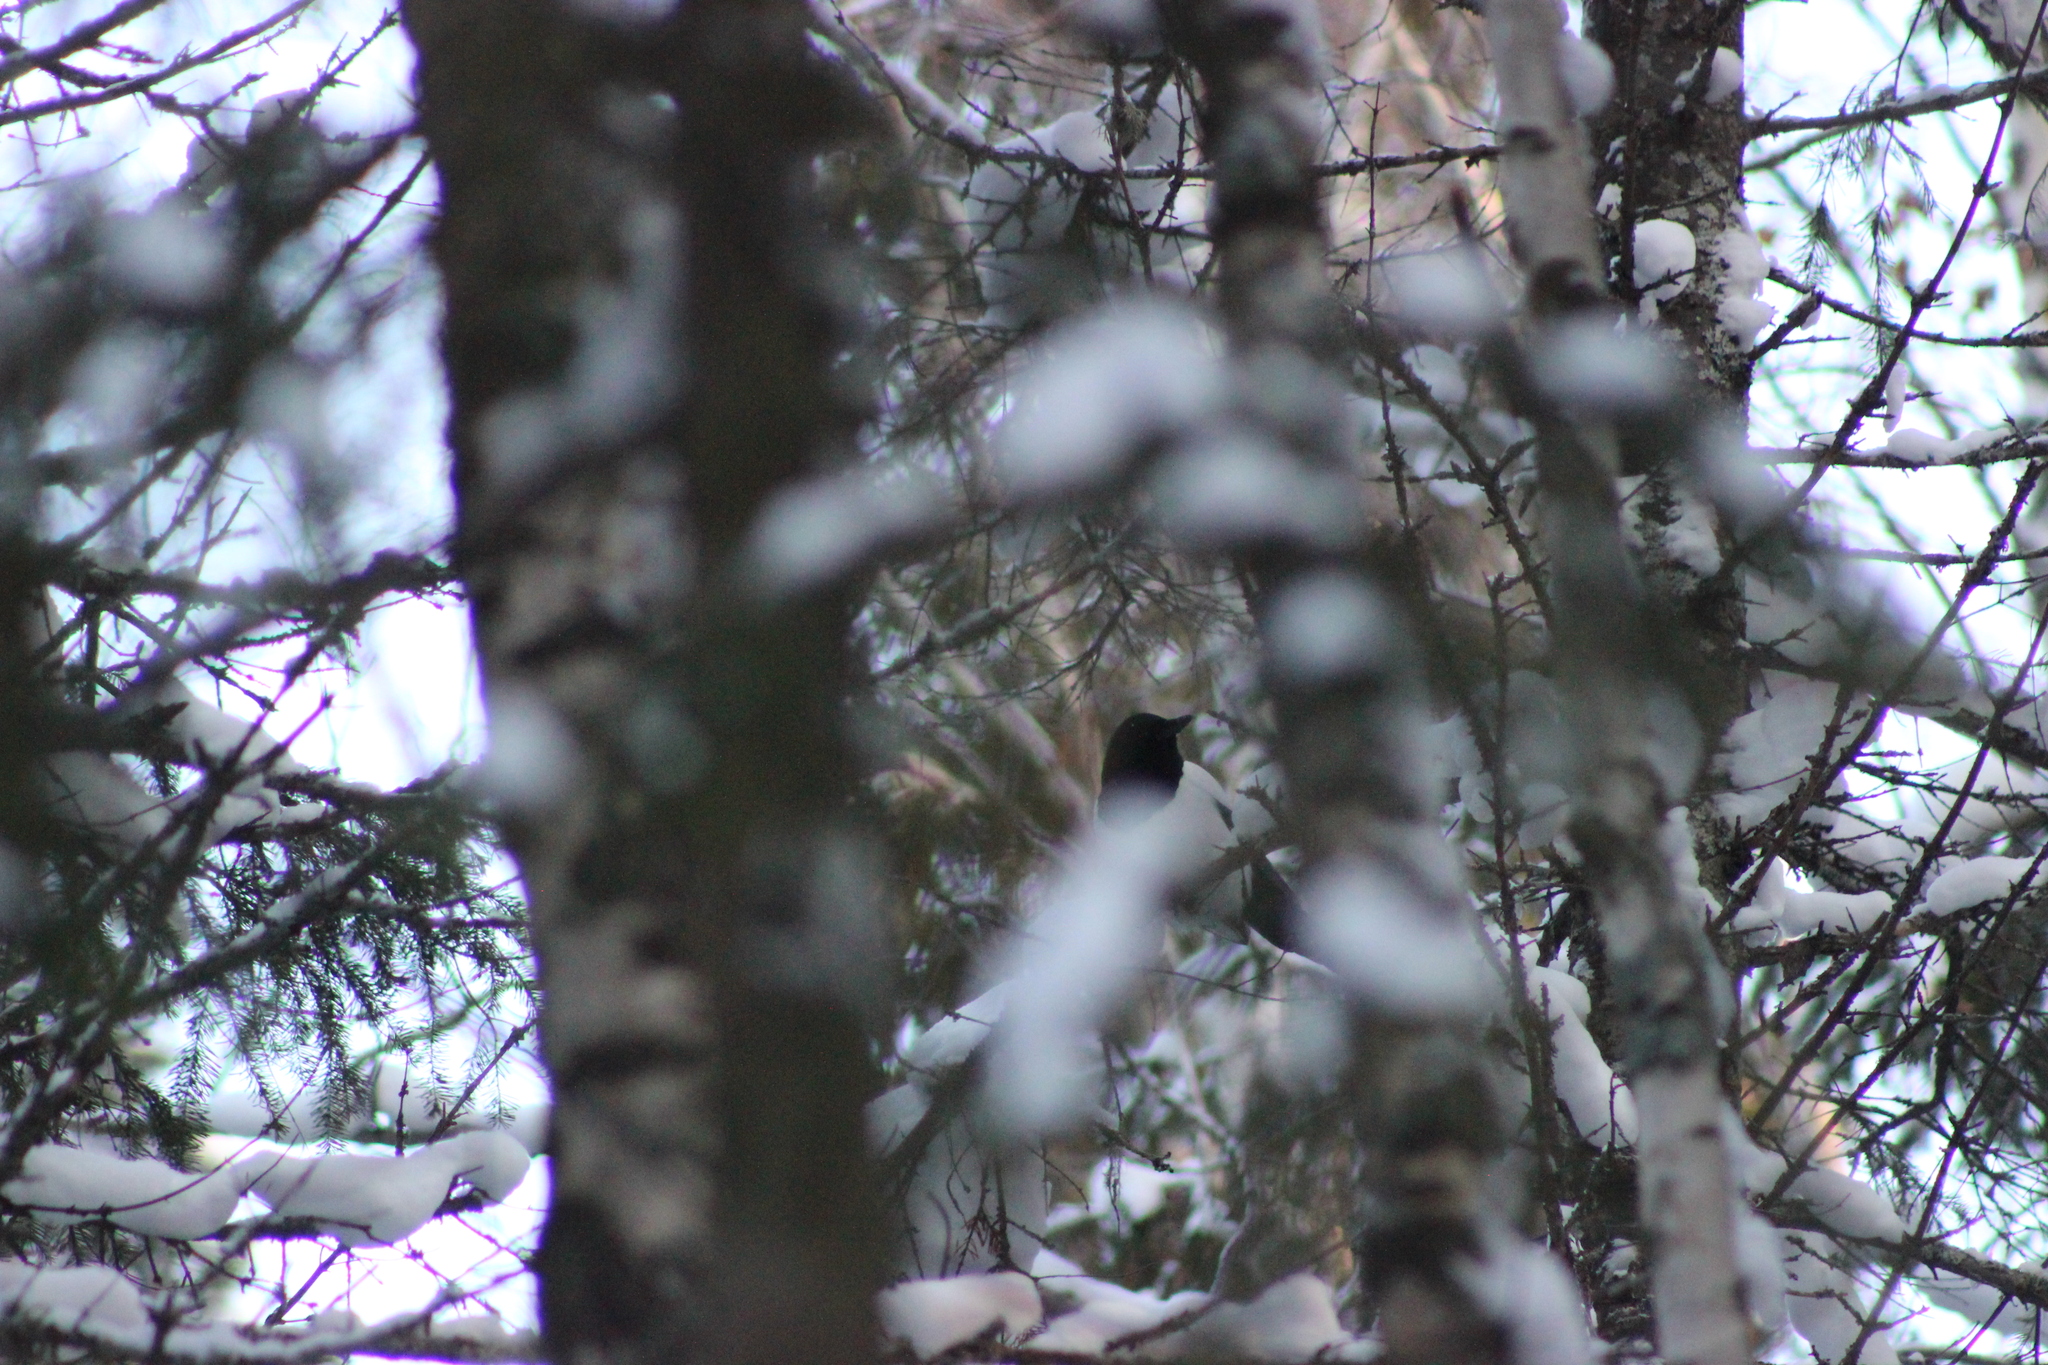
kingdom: Animalia
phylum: Chordata
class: Aves
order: Passeriformes
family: Corvidae
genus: Pica
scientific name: Pica pica
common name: Eurasian magpie
